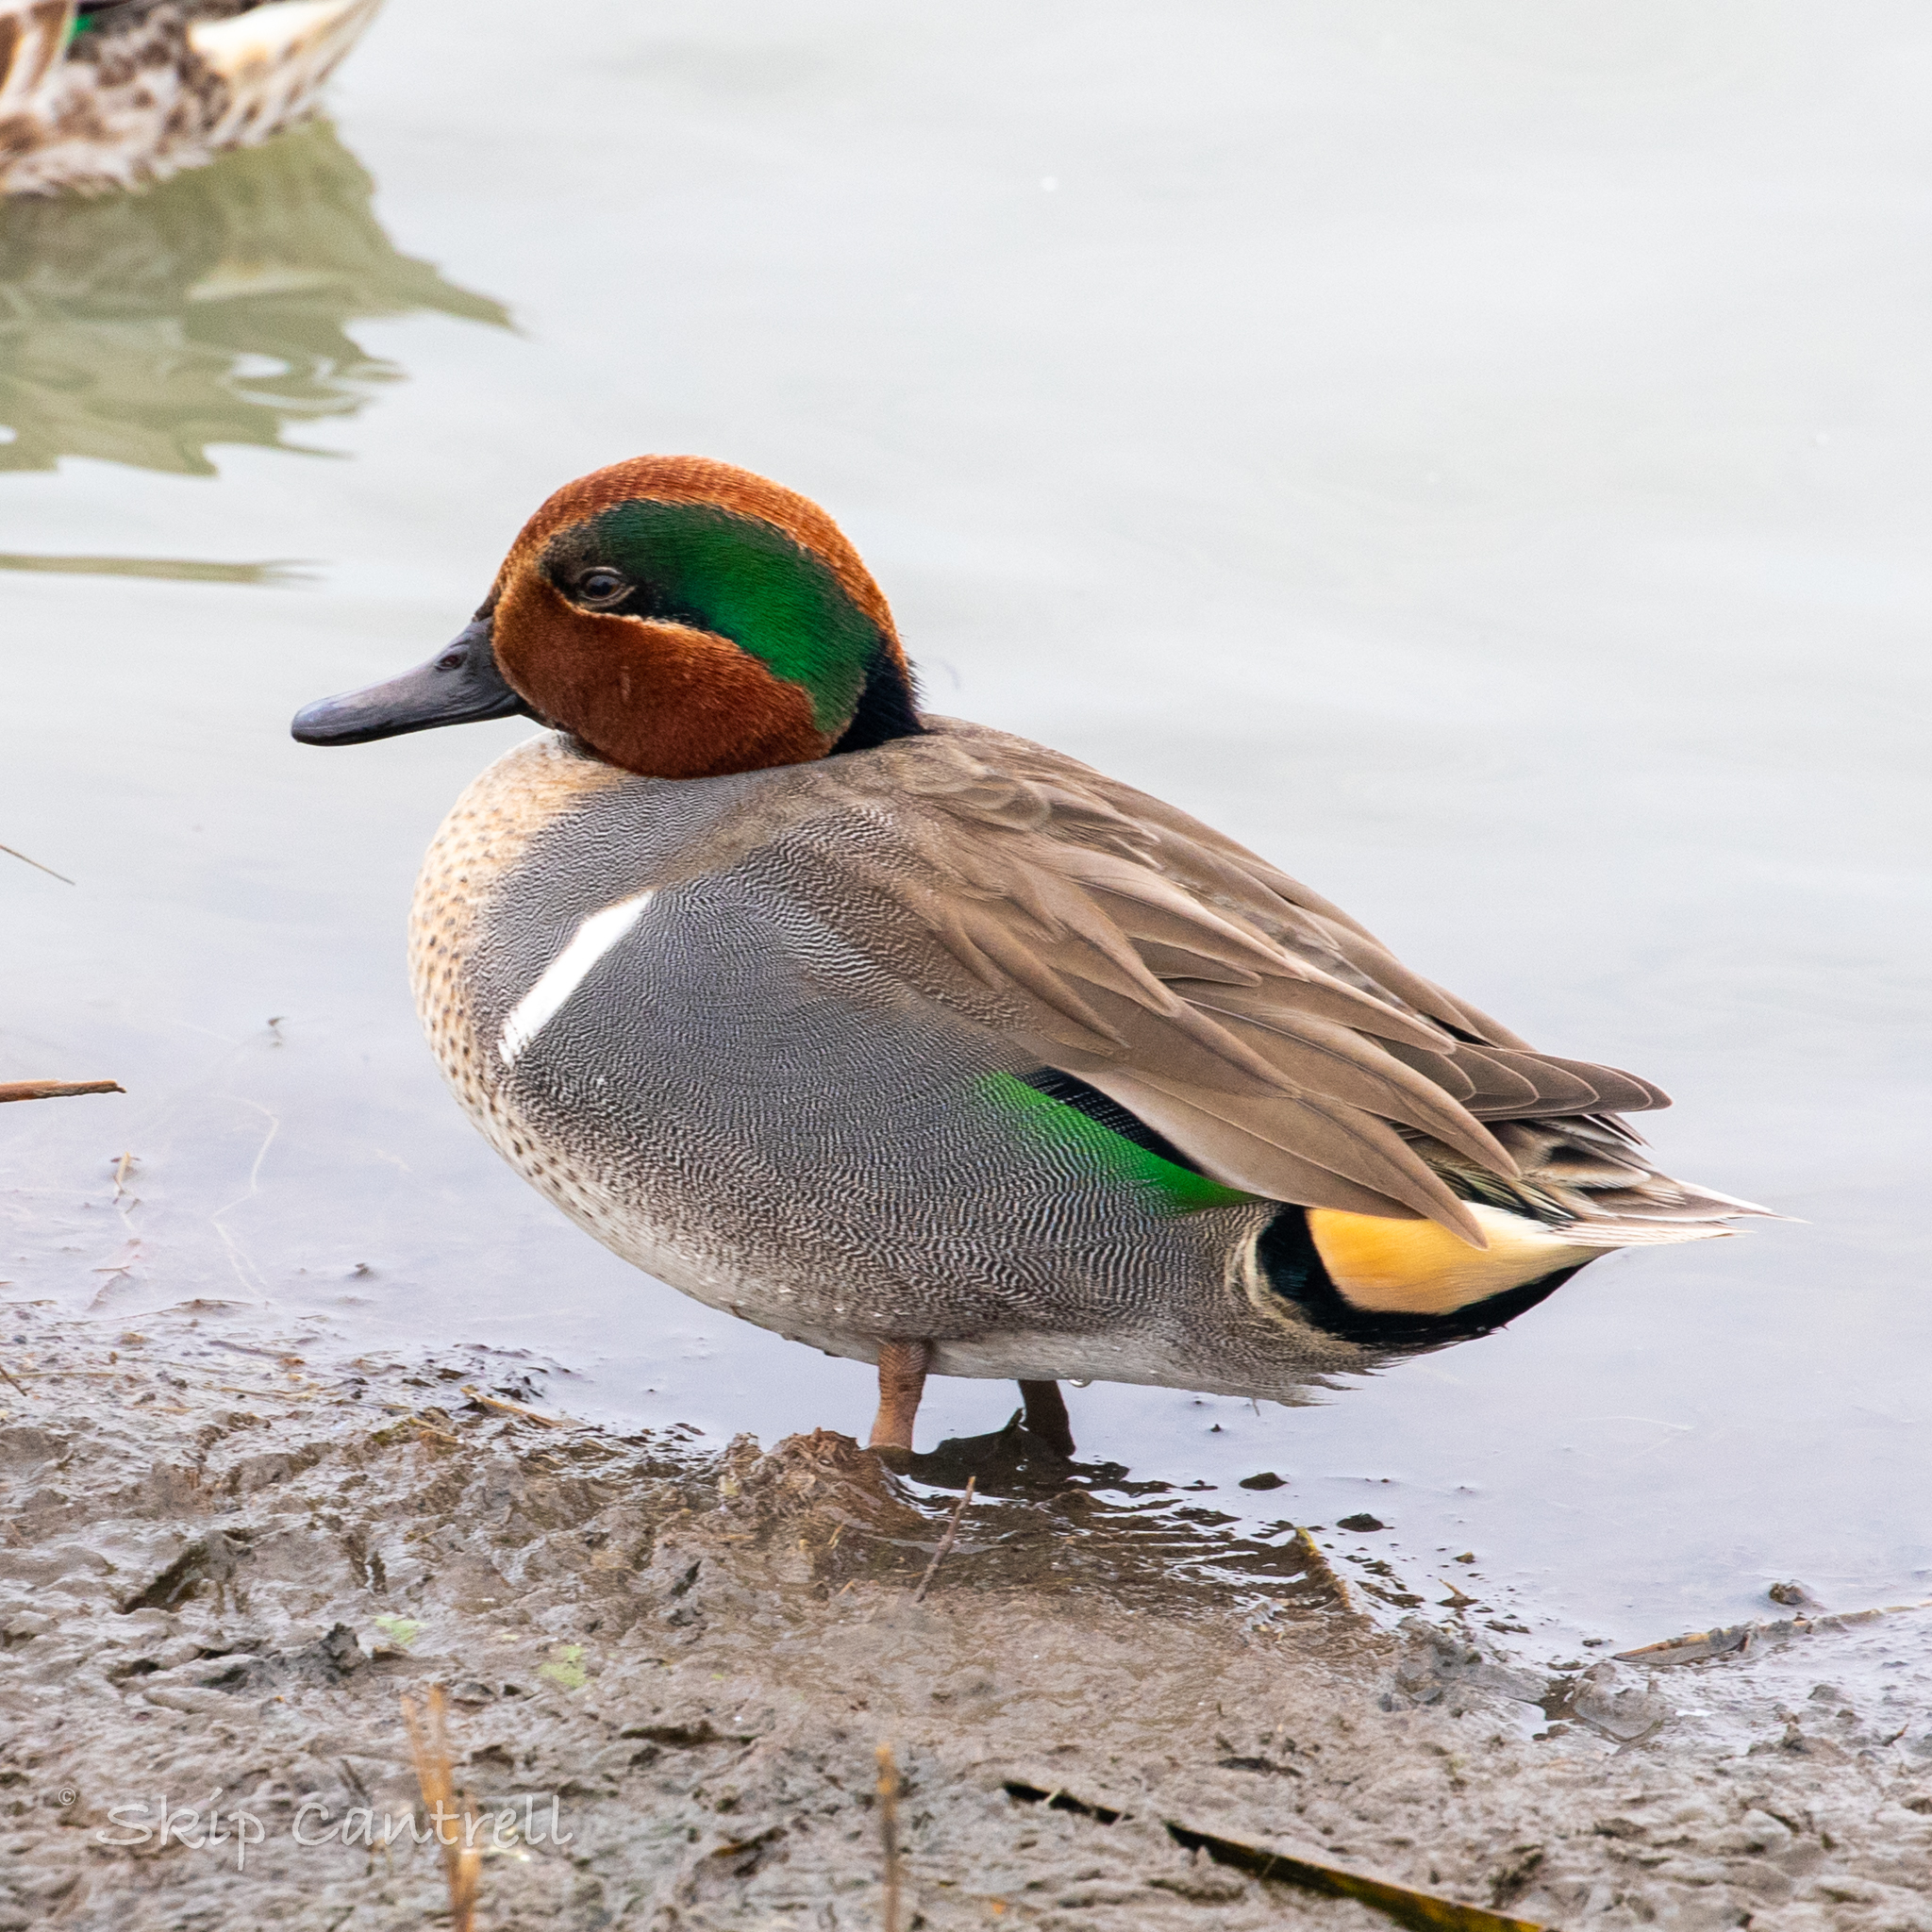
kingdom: Animalia
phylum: Chordata
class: Aves
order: Anseriformes
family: Anatidae
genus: Anas
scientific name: Anas crecca
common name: Eurasian teal
